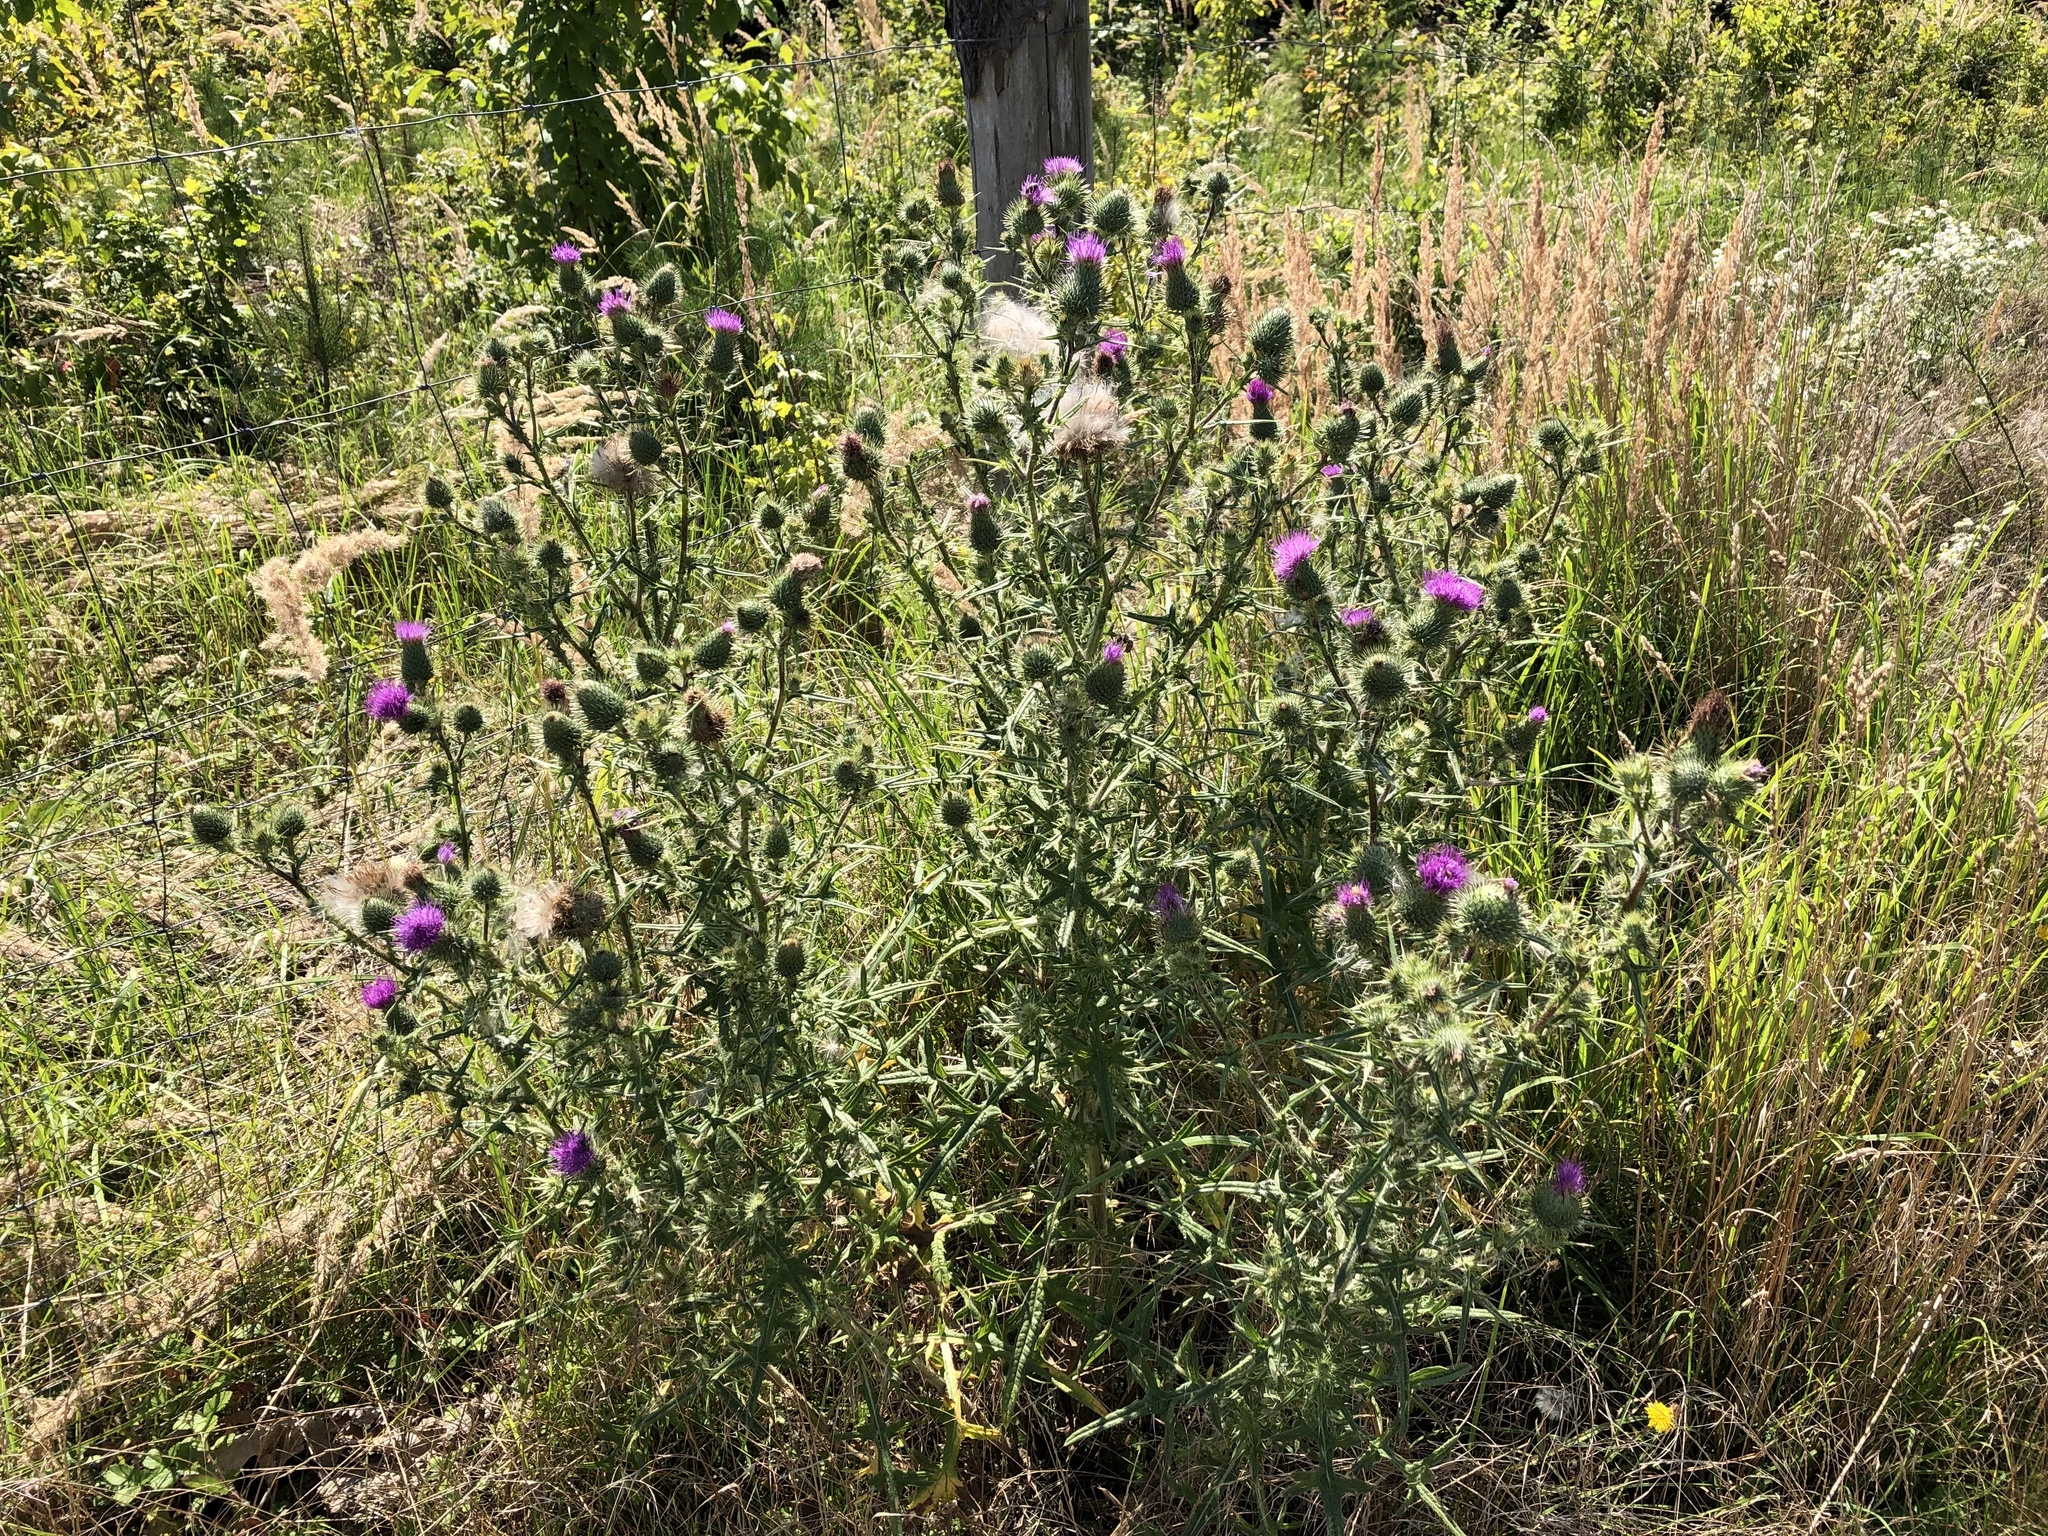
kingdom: Plantae
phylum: Tracheophyta
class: Magnoliopsida
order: Asterales
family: Asteraceae
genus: Cirsium
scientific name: Cirsium vulgare
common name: Bull thistle
